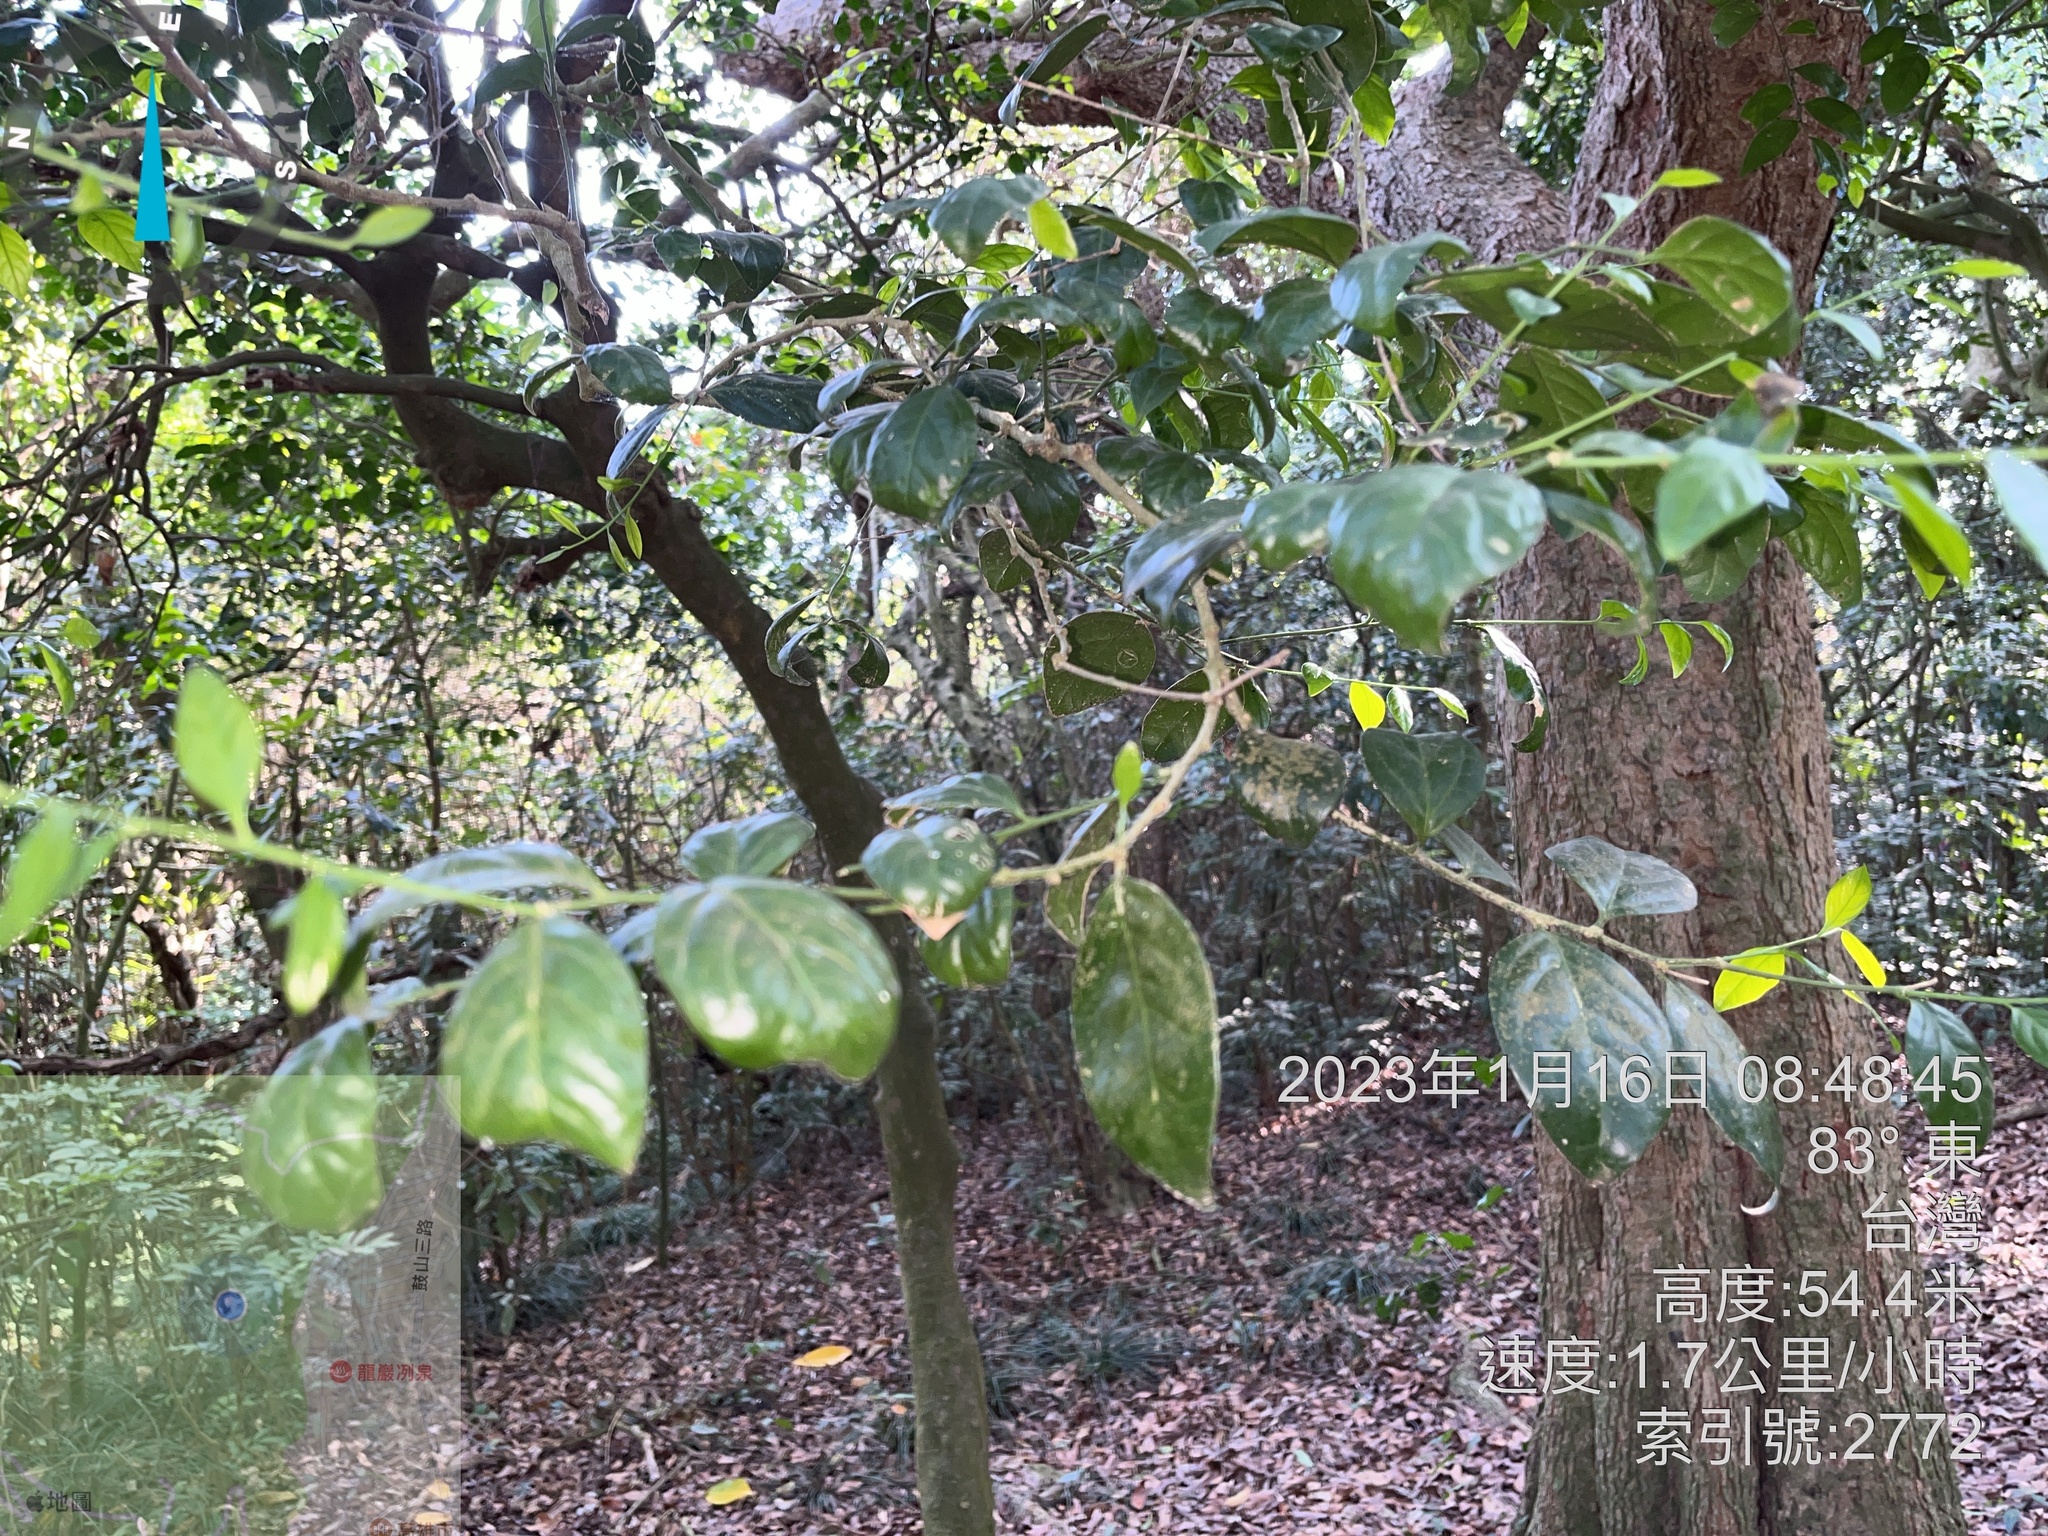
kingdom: Plantae
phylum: Tracheophyta
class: Magnoliopsida
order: Santalales
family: Opiliaceae
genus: Champereia
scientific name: Champereia manillana
